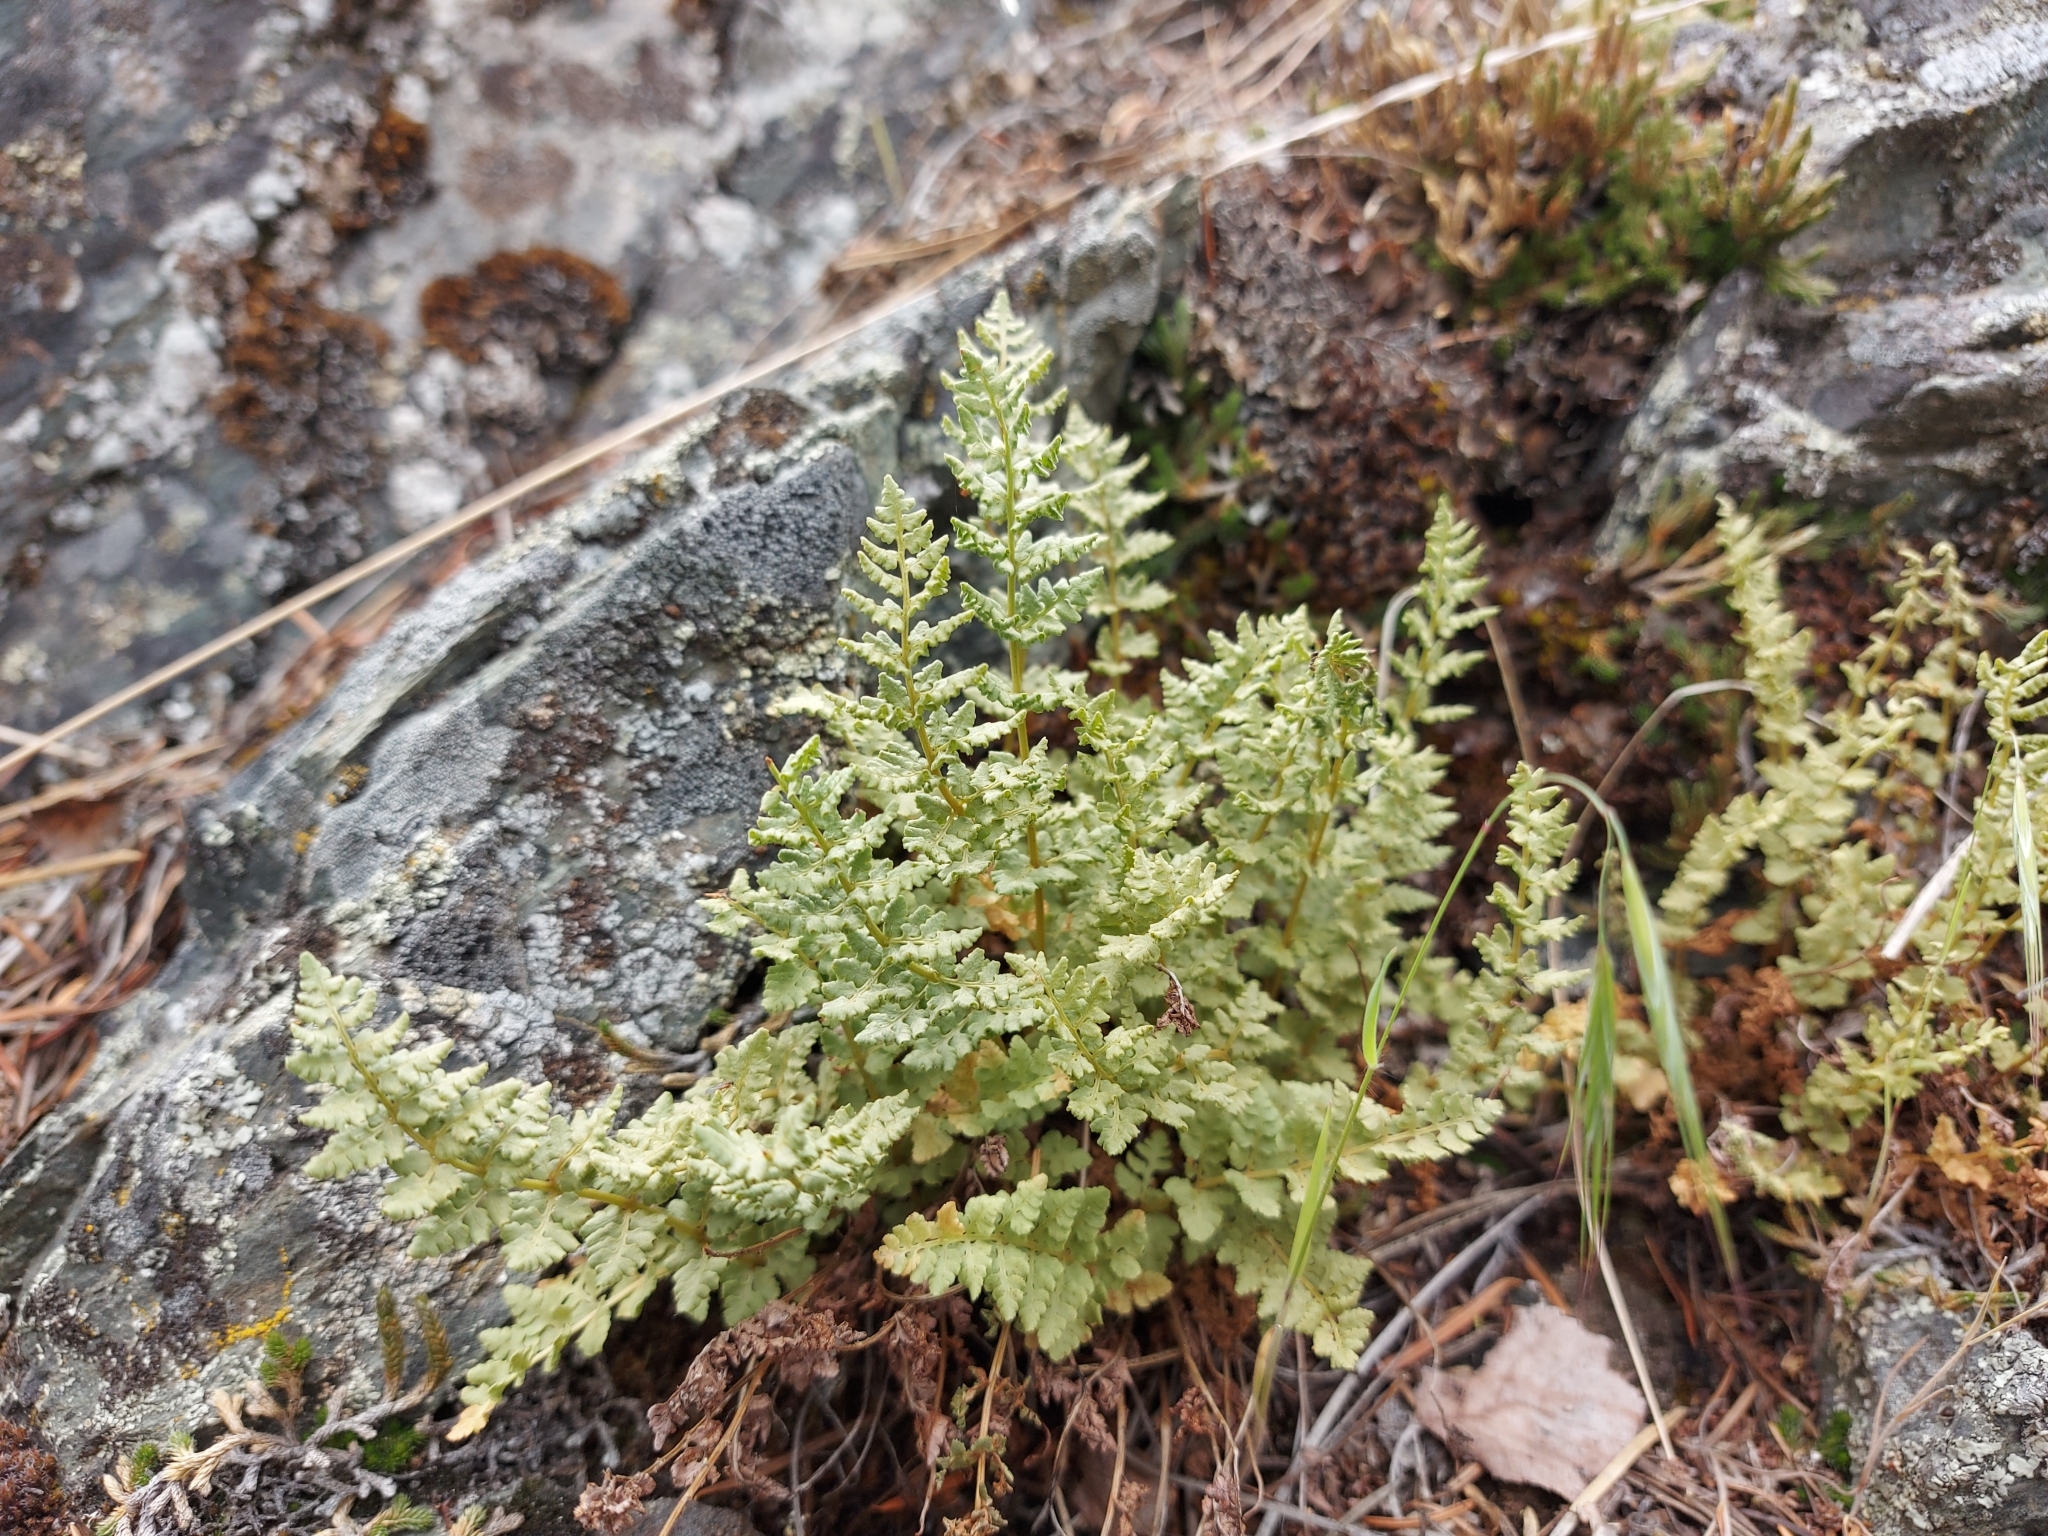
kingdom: Plantae
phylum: Tracheophyta
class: Polypodiopsida
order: Polypodiales
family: Woodsiaceae
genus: Physematium
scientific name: Physematium oreganum
